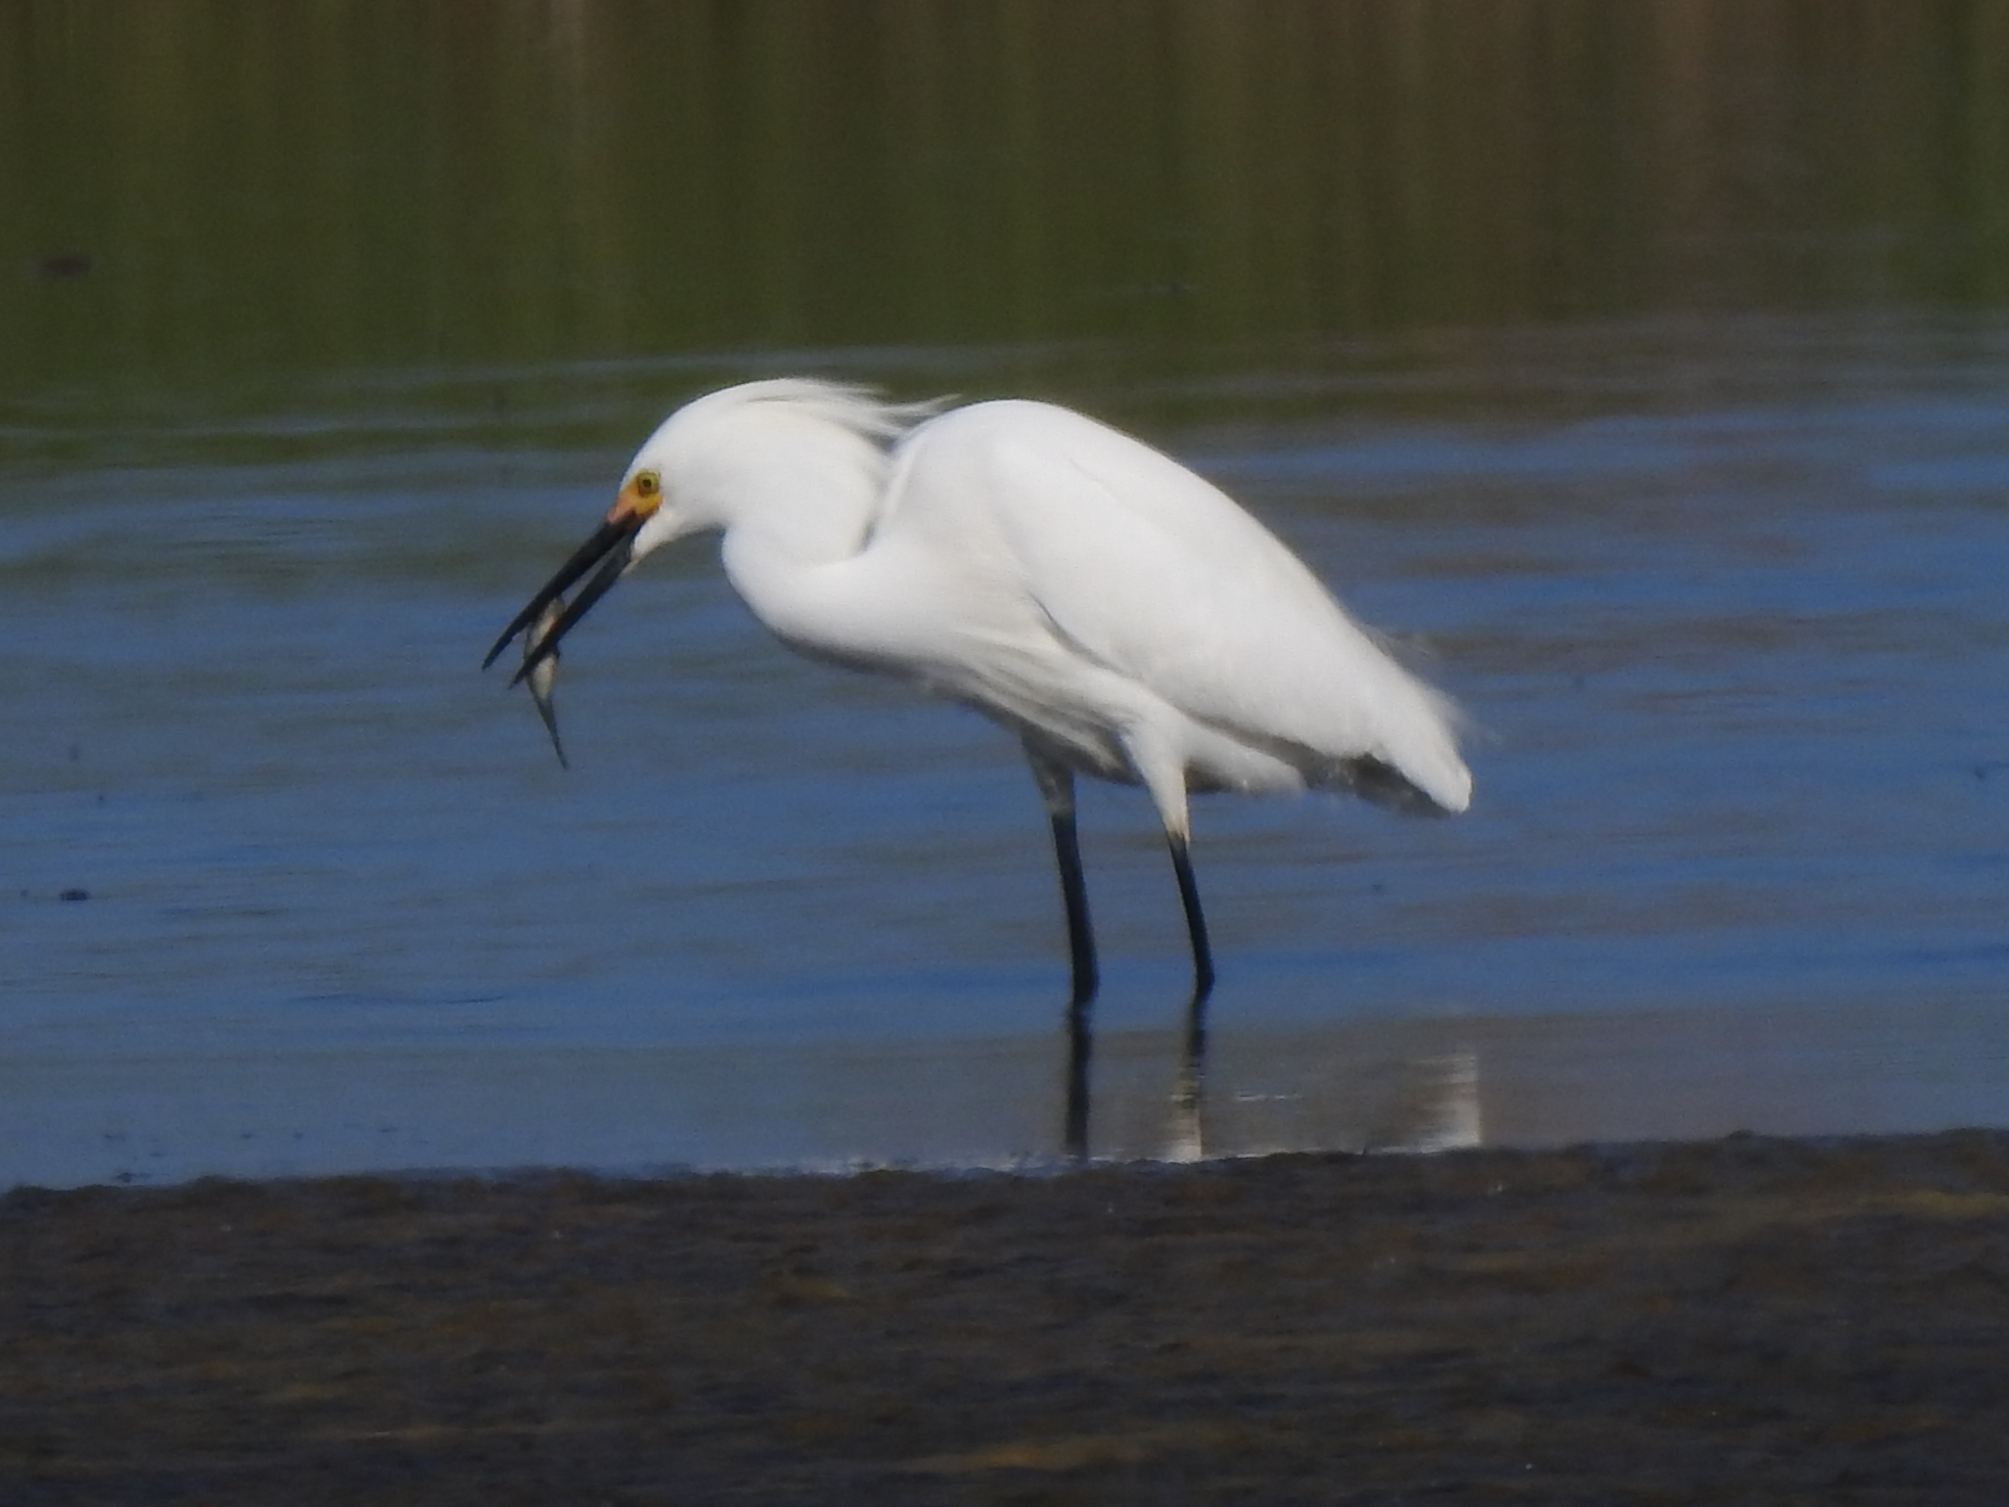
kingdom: Animalia
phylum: Chordata
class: Aves
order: Pelecaniformes
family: Ardeidae
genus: Egretta
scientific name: Egretta thula
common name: Snowy egret
